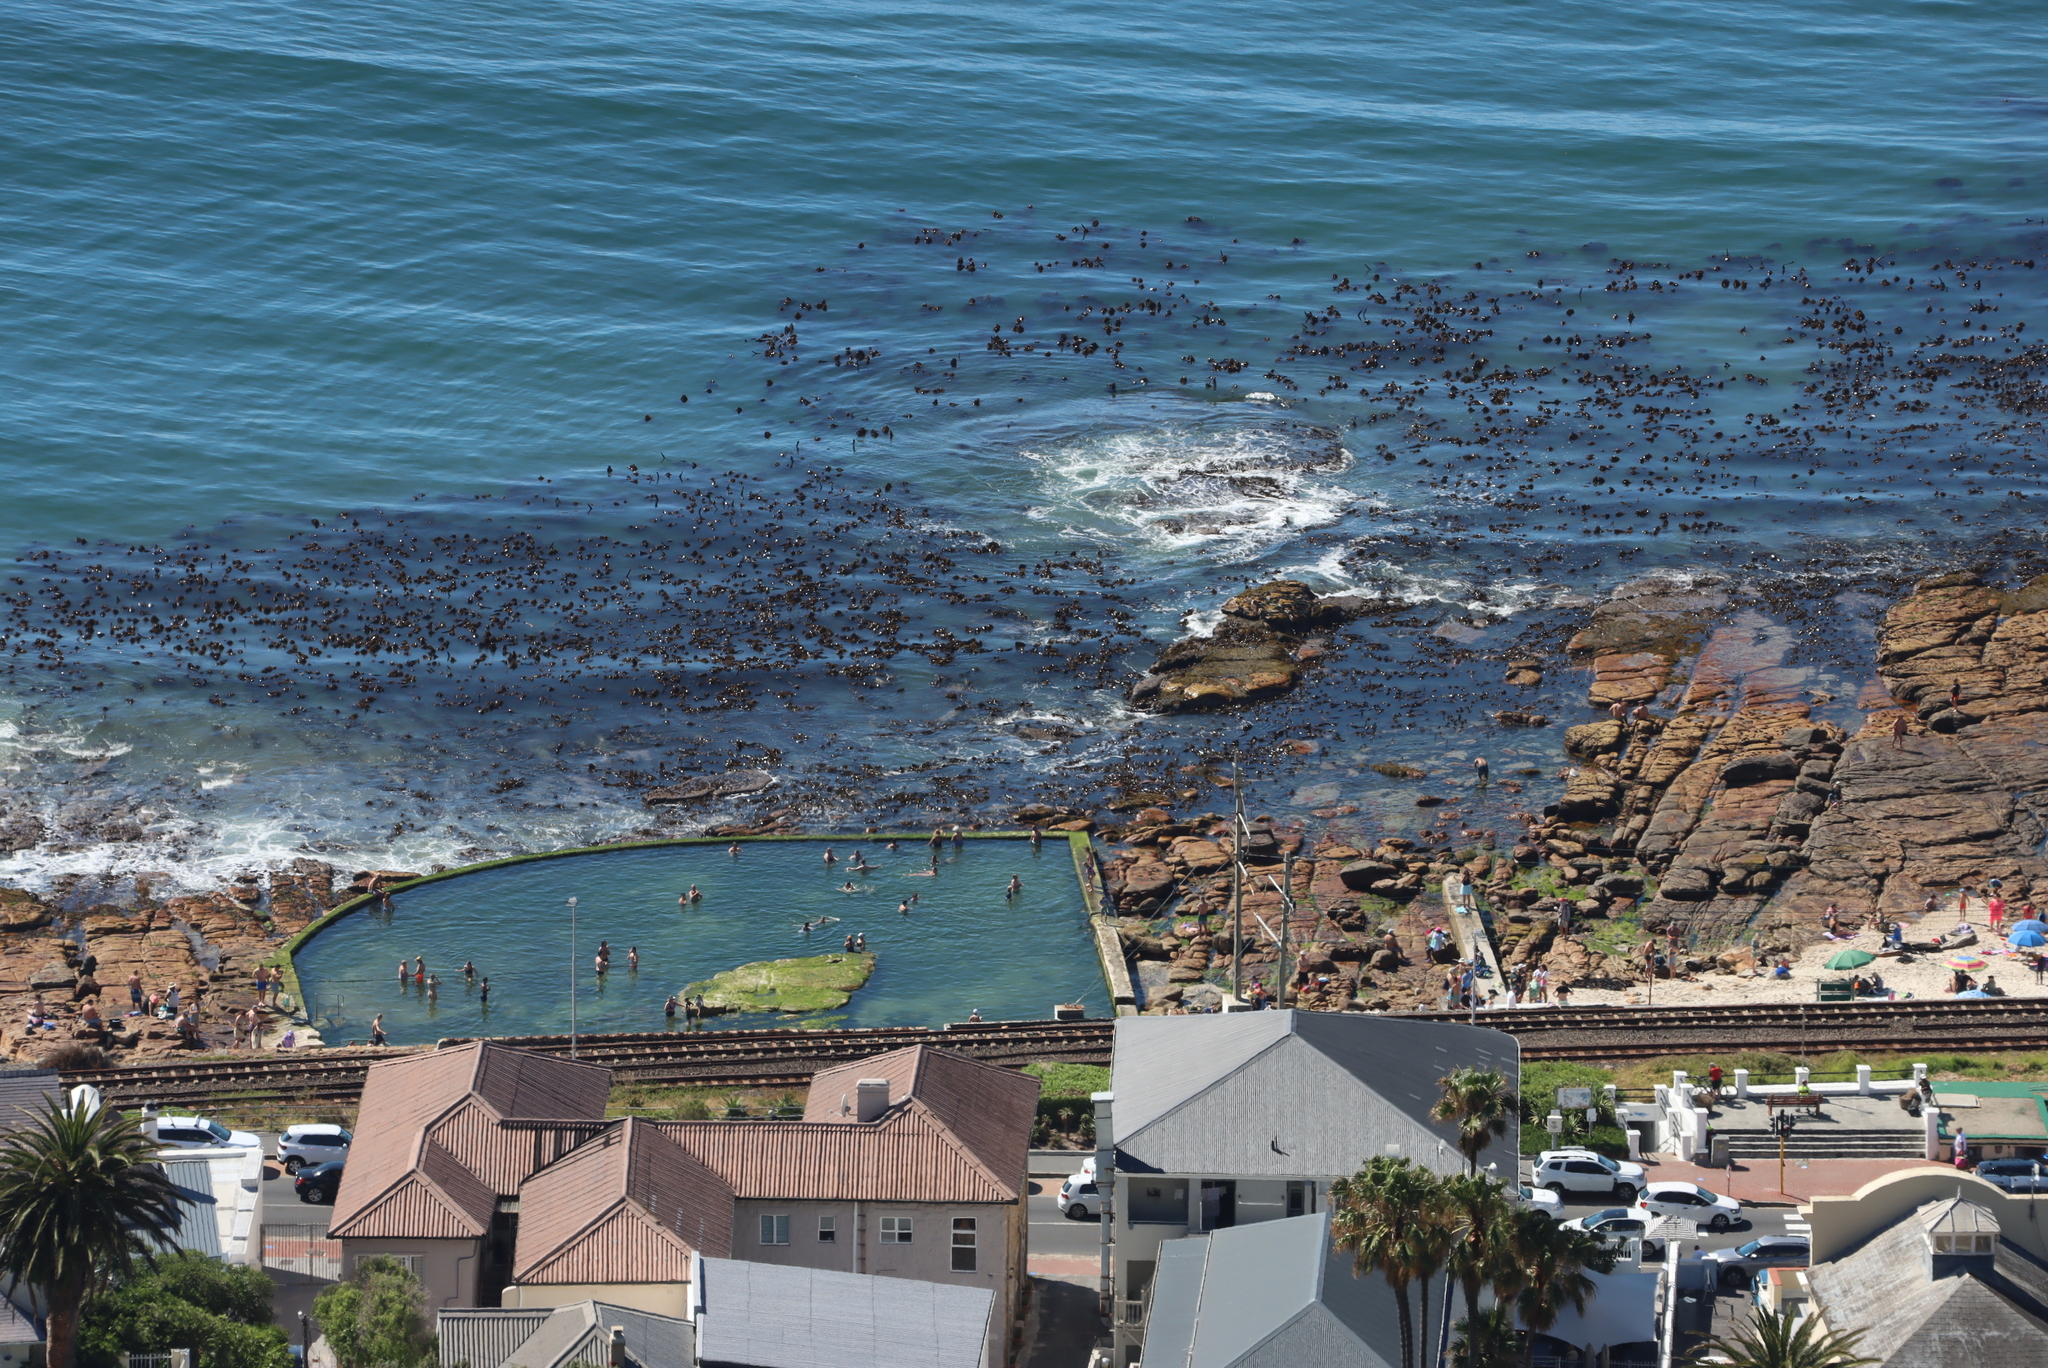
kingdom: Chromista
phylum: Ochrophyta
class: Phaeophyceae
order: Laminariales
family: Lessoniaceae
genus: Ecklonia
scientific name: Ecklonia
